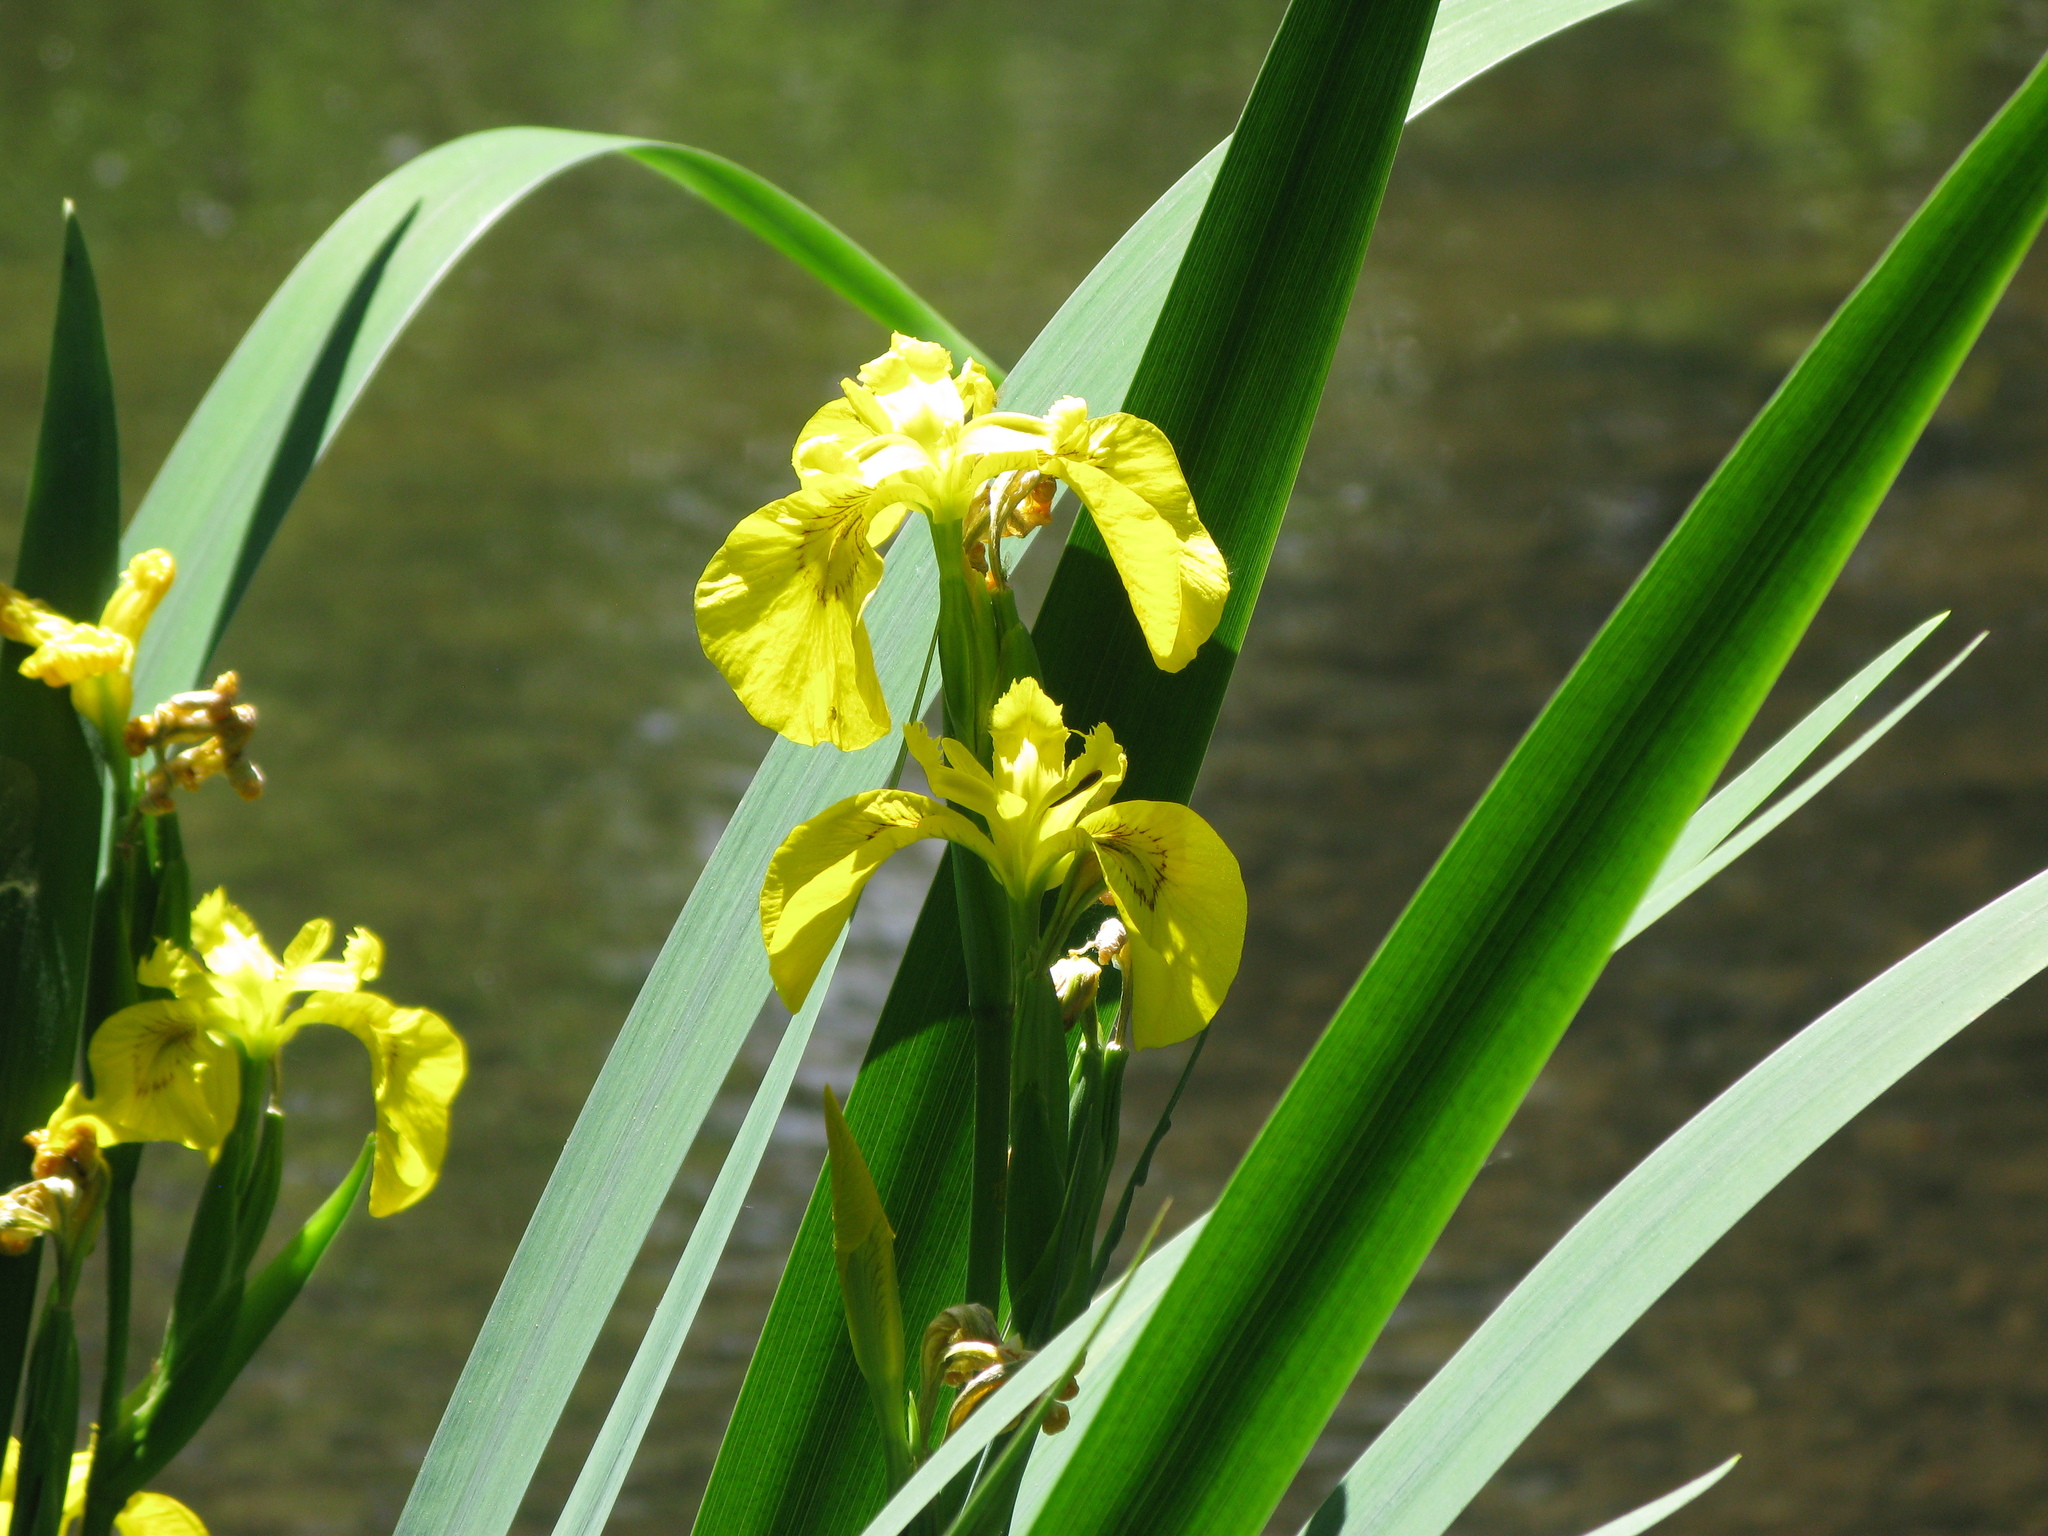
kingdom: Plantae
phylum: Tracheophyta
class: Liliopsida
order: Asparagales
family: Iridaceae
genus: Iris
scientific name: Iris pseudacorus
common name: Yellow flag
